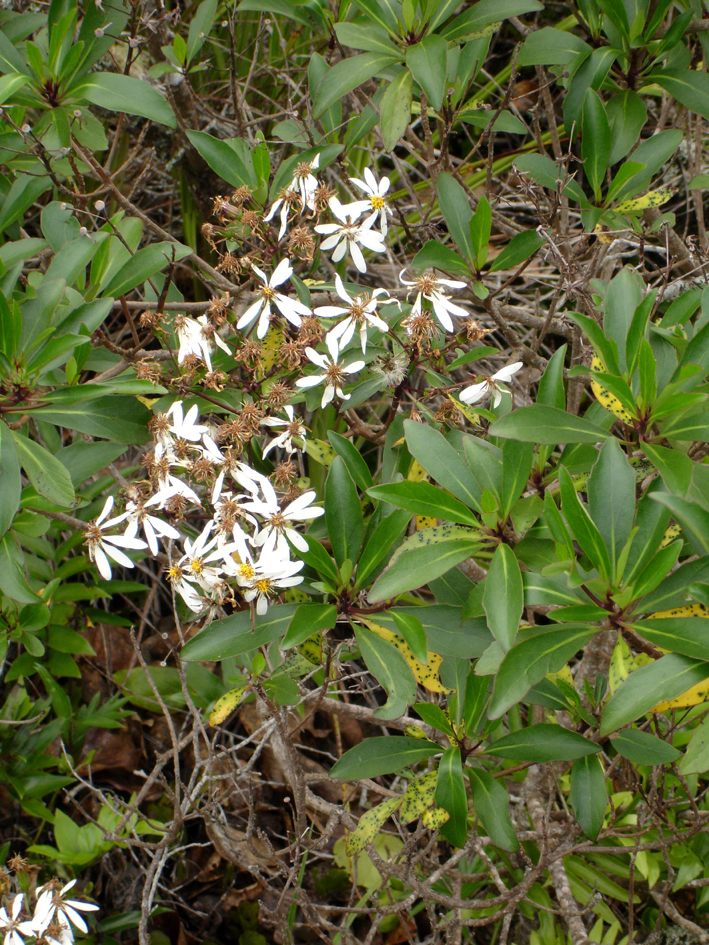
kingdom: Plantae
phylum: Tracheophyta
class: Magnoliopsida
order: Asterales
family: Asteraceae
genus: Brachyglottis
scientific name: Brachyglottis kirkii
